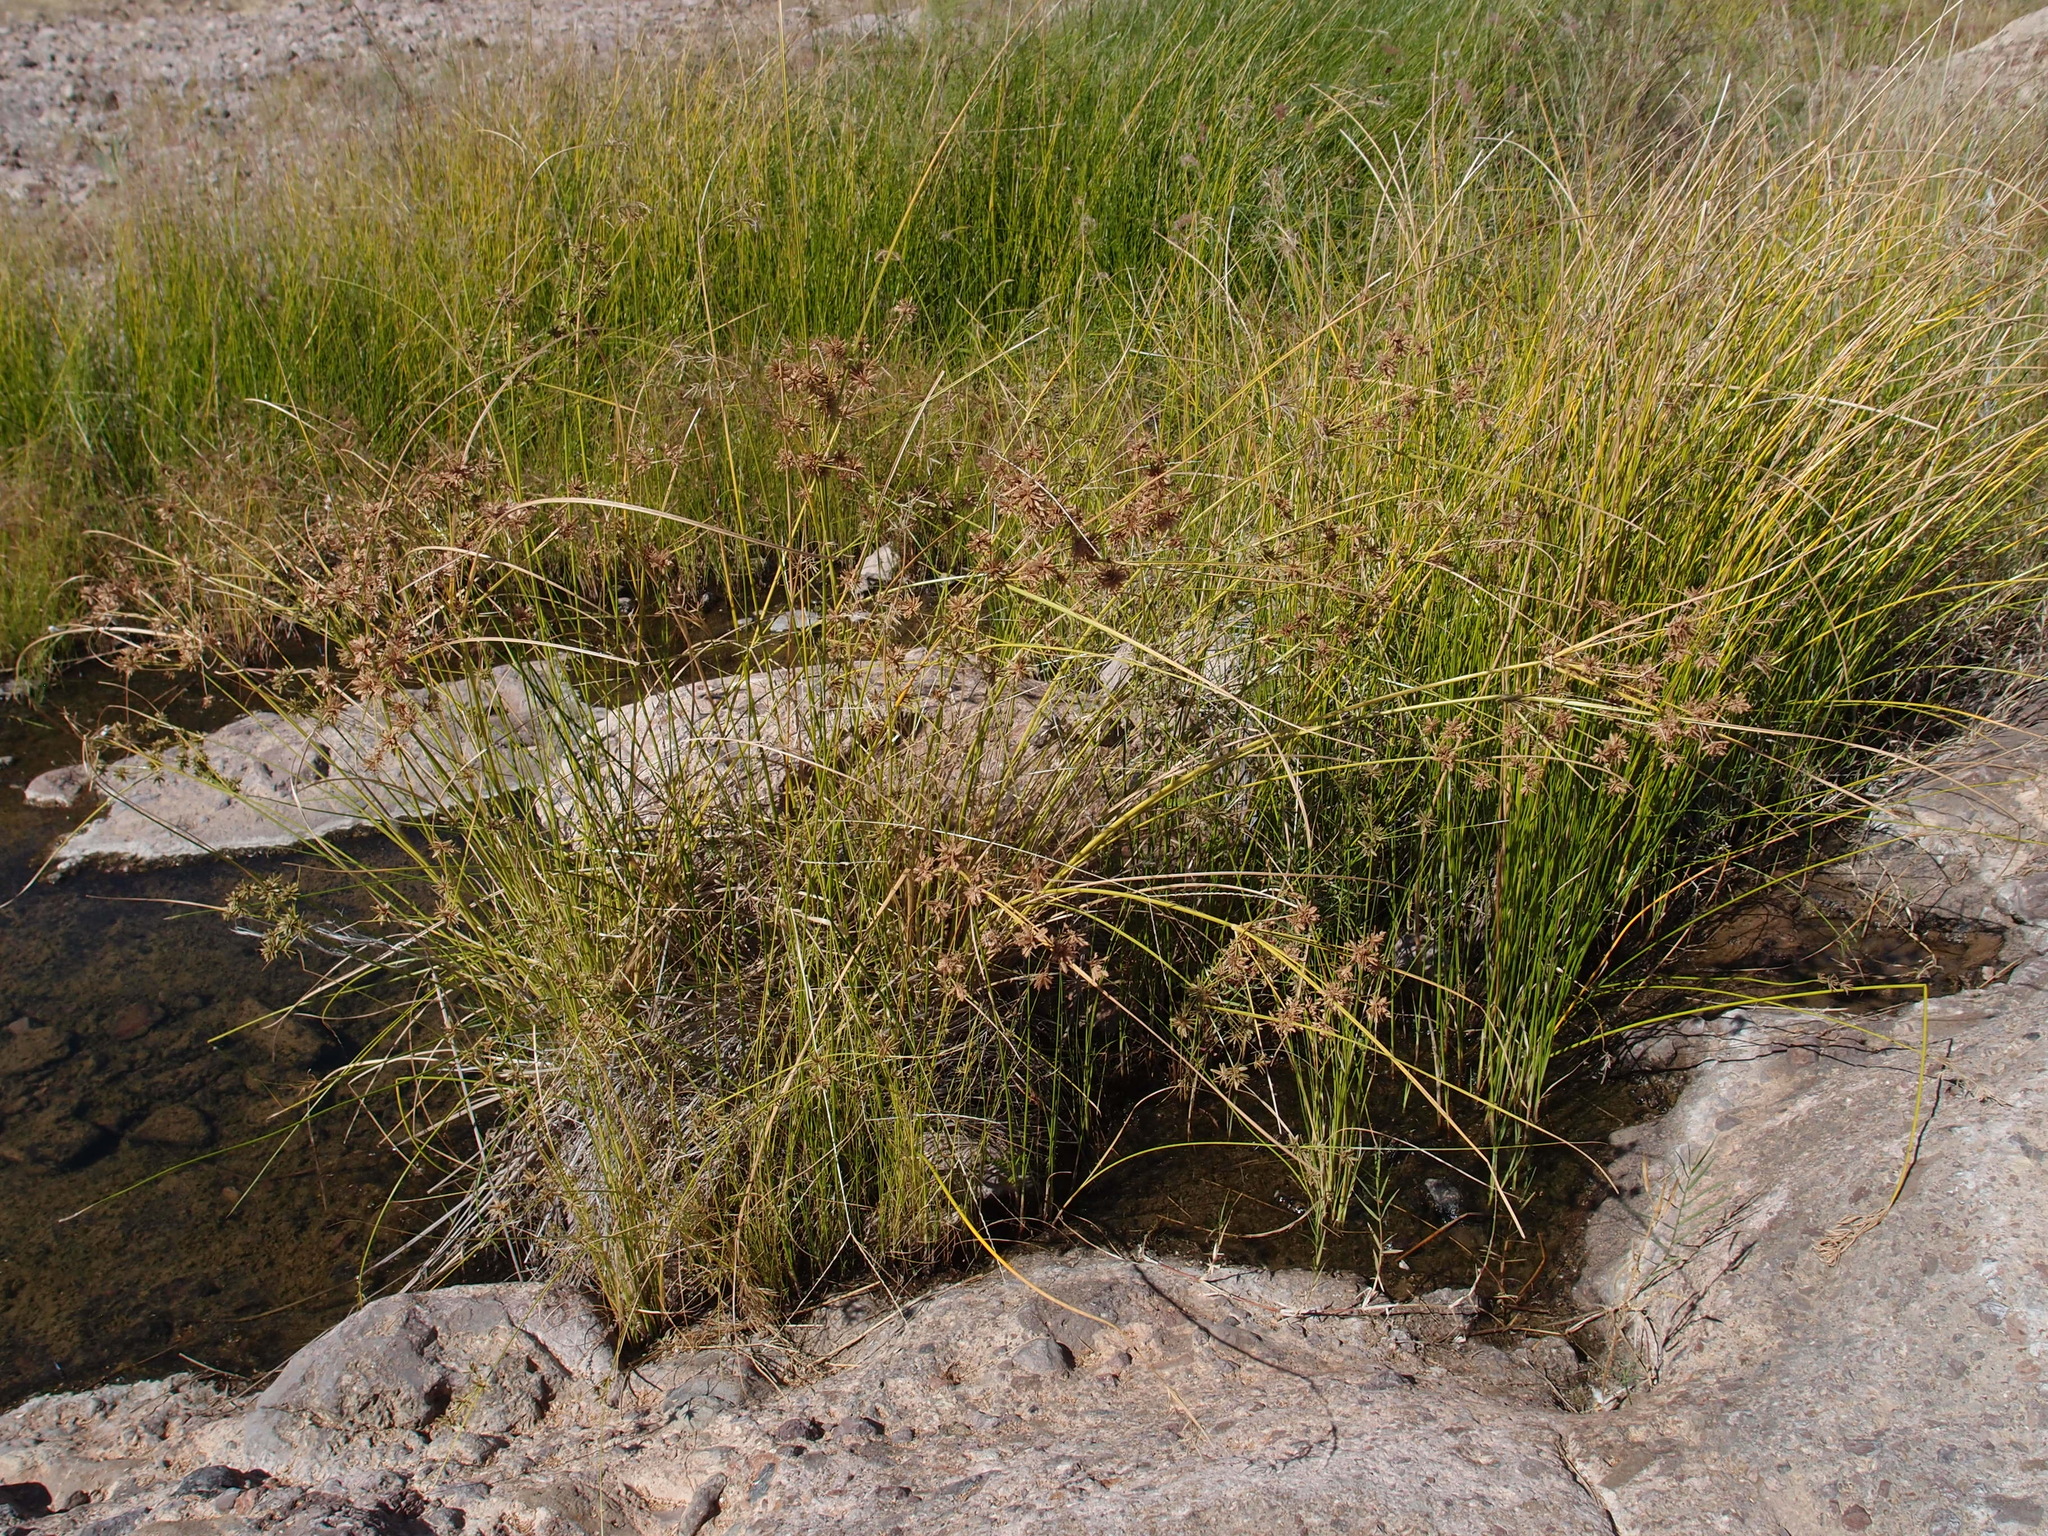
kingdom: Plantae
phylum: Tracheophyta
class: Liliopsida
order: Poales
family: Cyperaceae
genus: Cyperus
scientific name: Cyperus elegans
